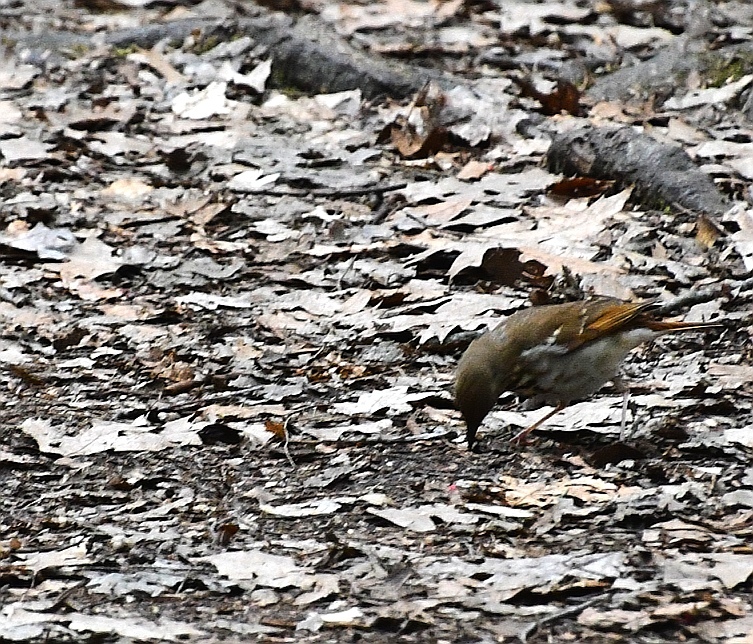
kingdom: Animalia
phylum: Chordata
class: Aves
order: Passeriformes
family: Turdidae
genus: Catharus
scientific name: Catharus guttatus
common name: Hermit thrush
